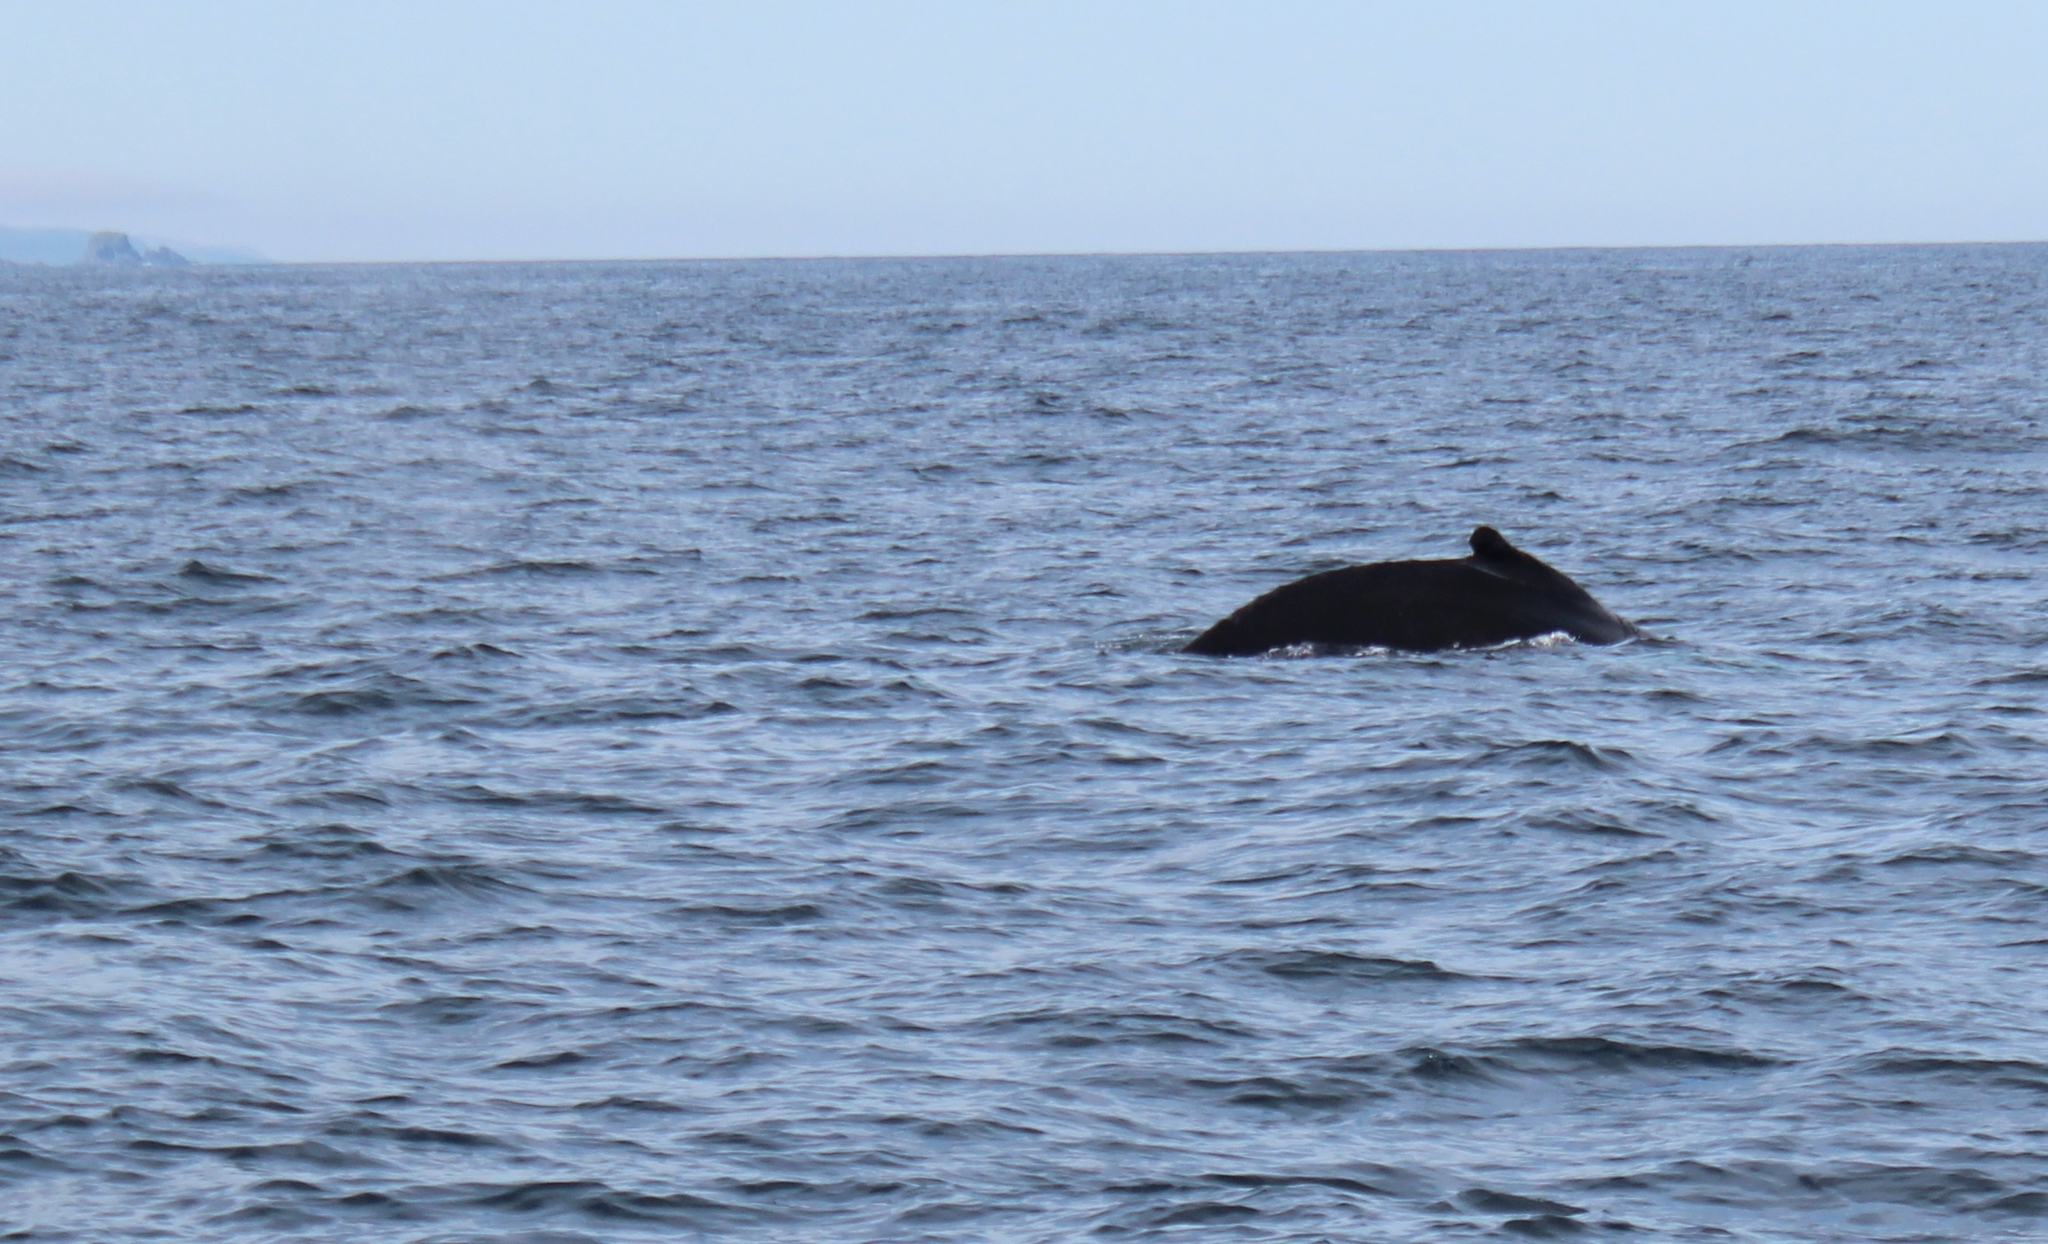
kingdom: Animalia
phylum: Chordata
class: Mammalia
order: Cetacea
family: Balaenopteridae
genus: Megaptera
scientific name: Megaptera novaeangliae
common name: Humpback whale
